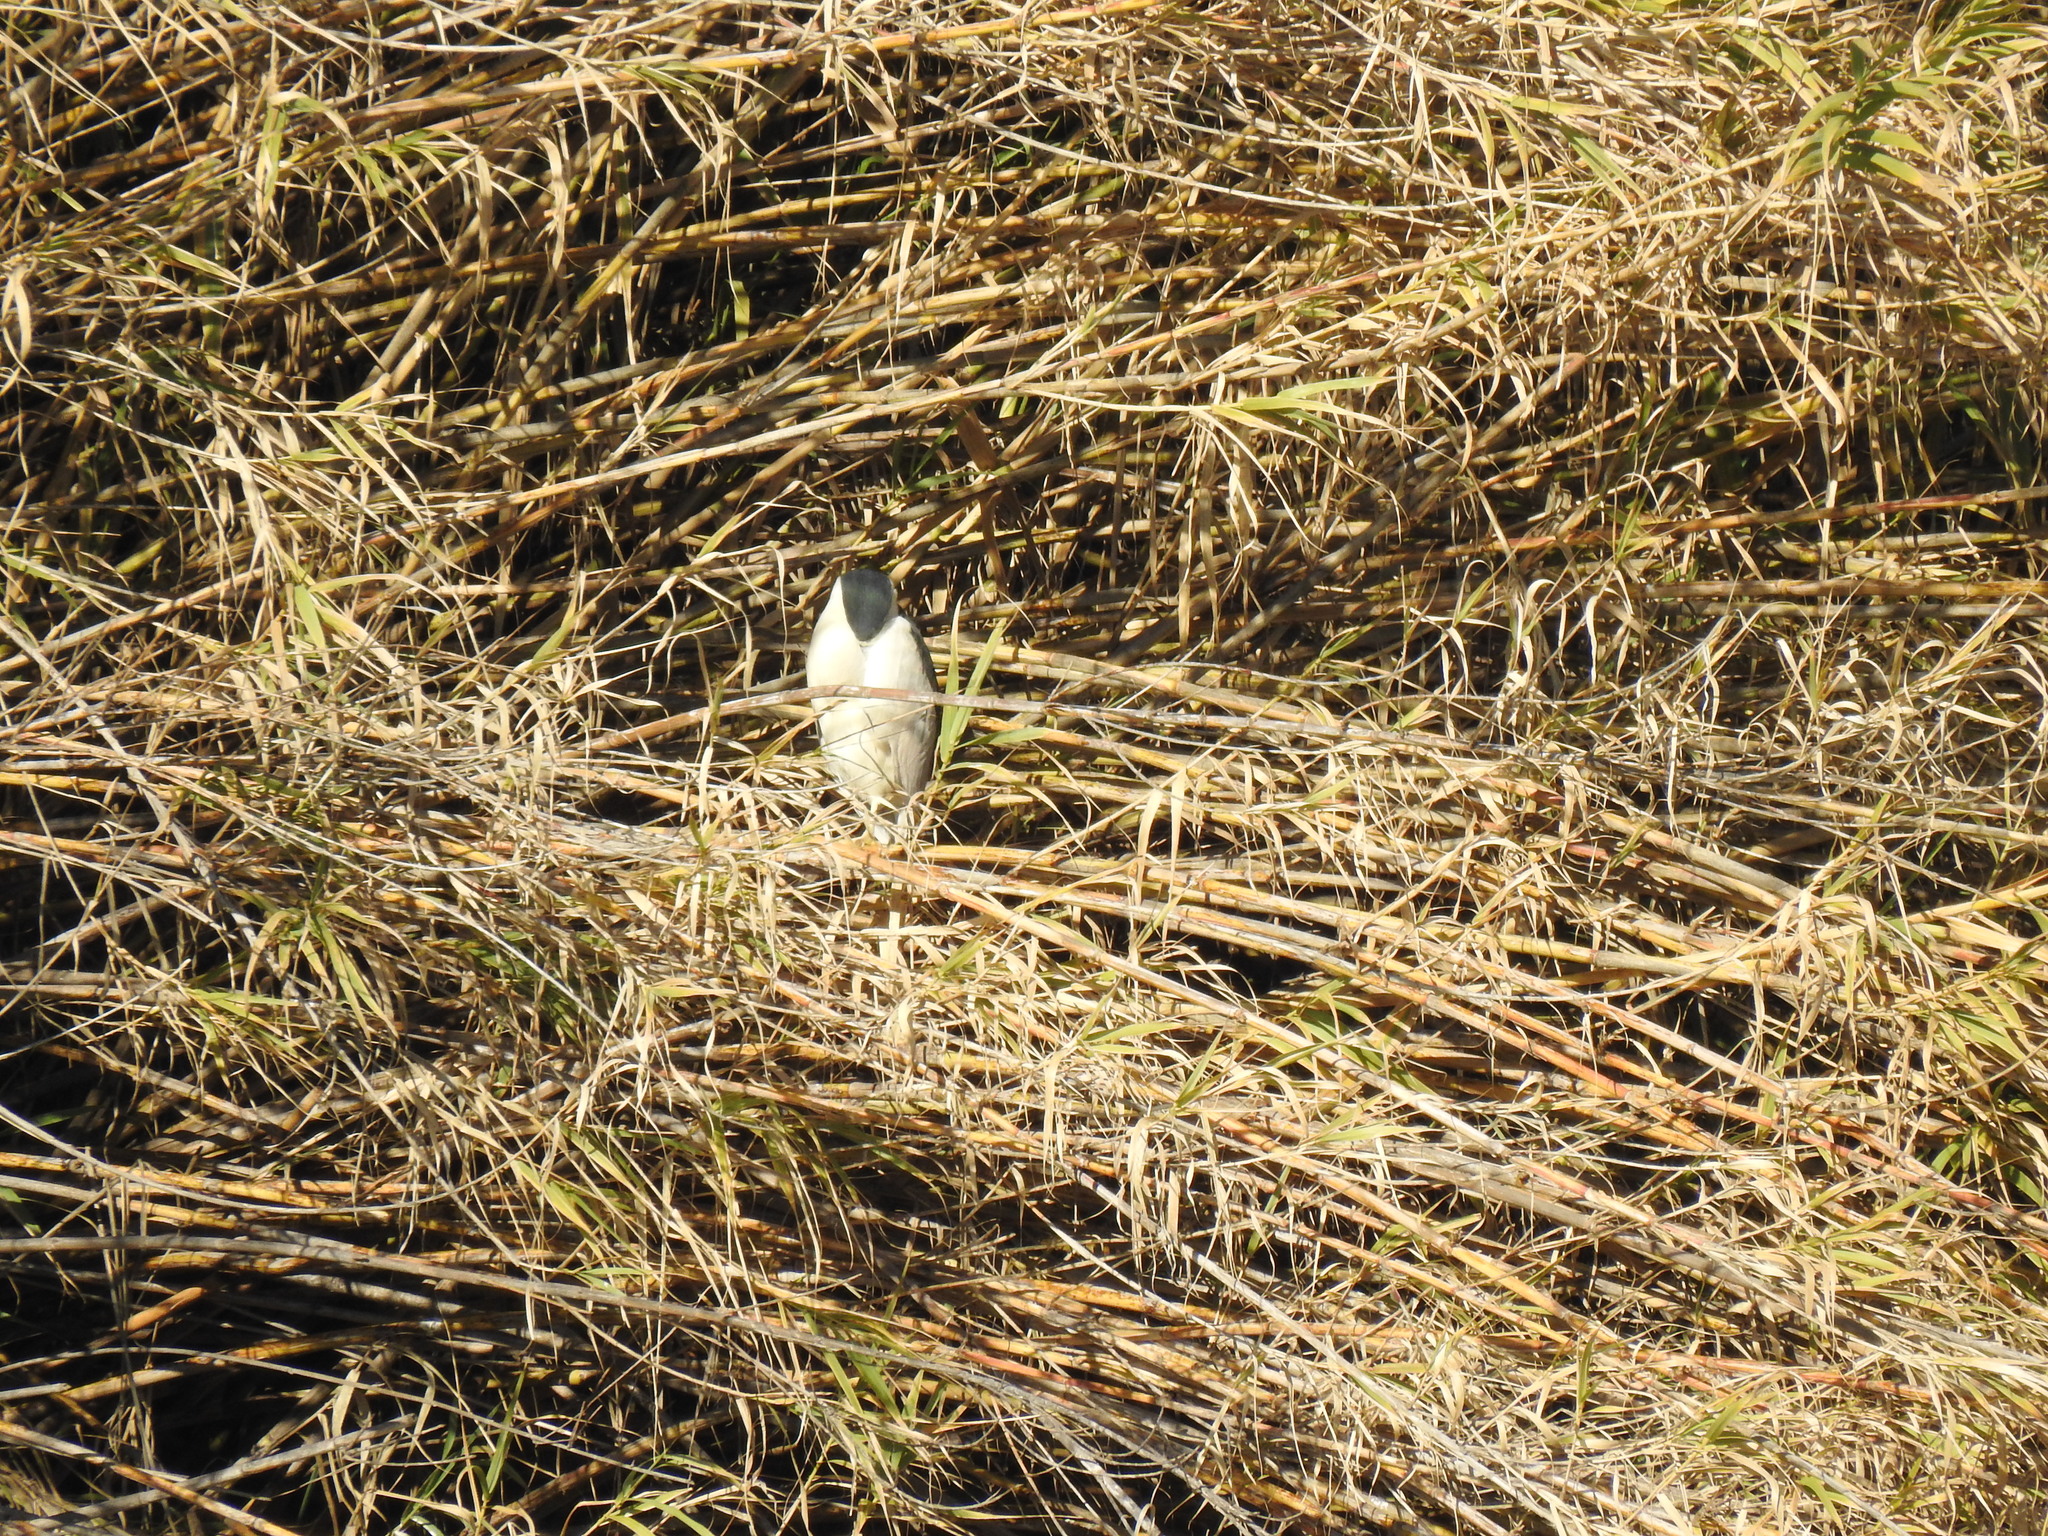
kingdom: Animalia
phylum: Chordata
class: Aves
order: Pelecaniformes
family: Ardeidae
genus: Nycticorax
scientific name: Nycticorax nycticorax
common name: Black-crowned night heron
